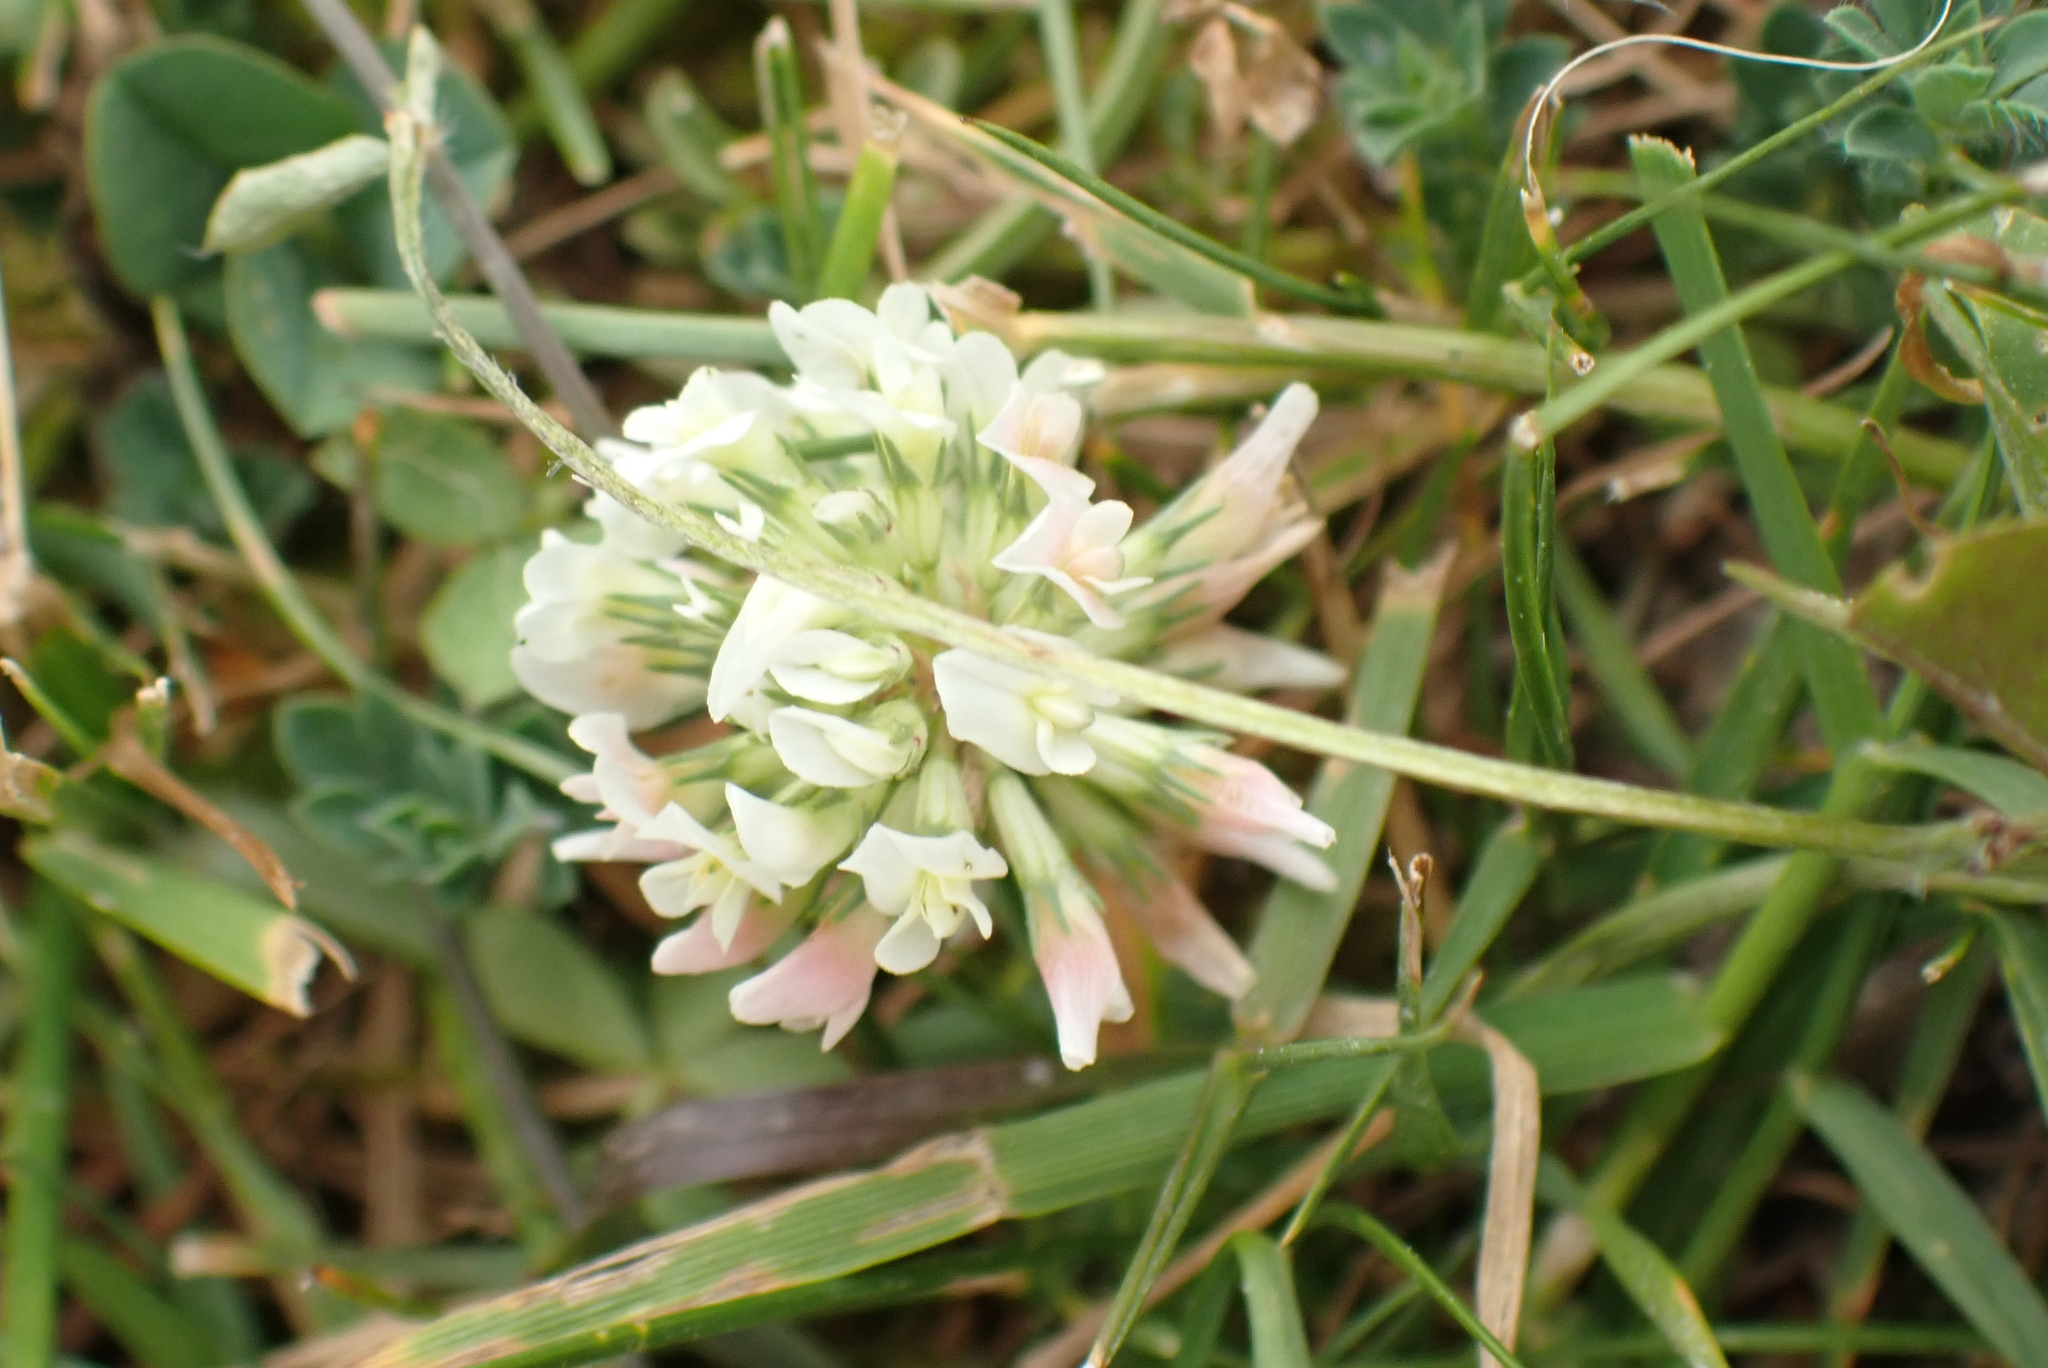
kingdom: Plantae
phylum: Tracheophyta
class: Magnoliopsida
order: Fabales
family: Fabaceae
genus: Trifolium
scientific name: Trifolium repens
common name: White clover
